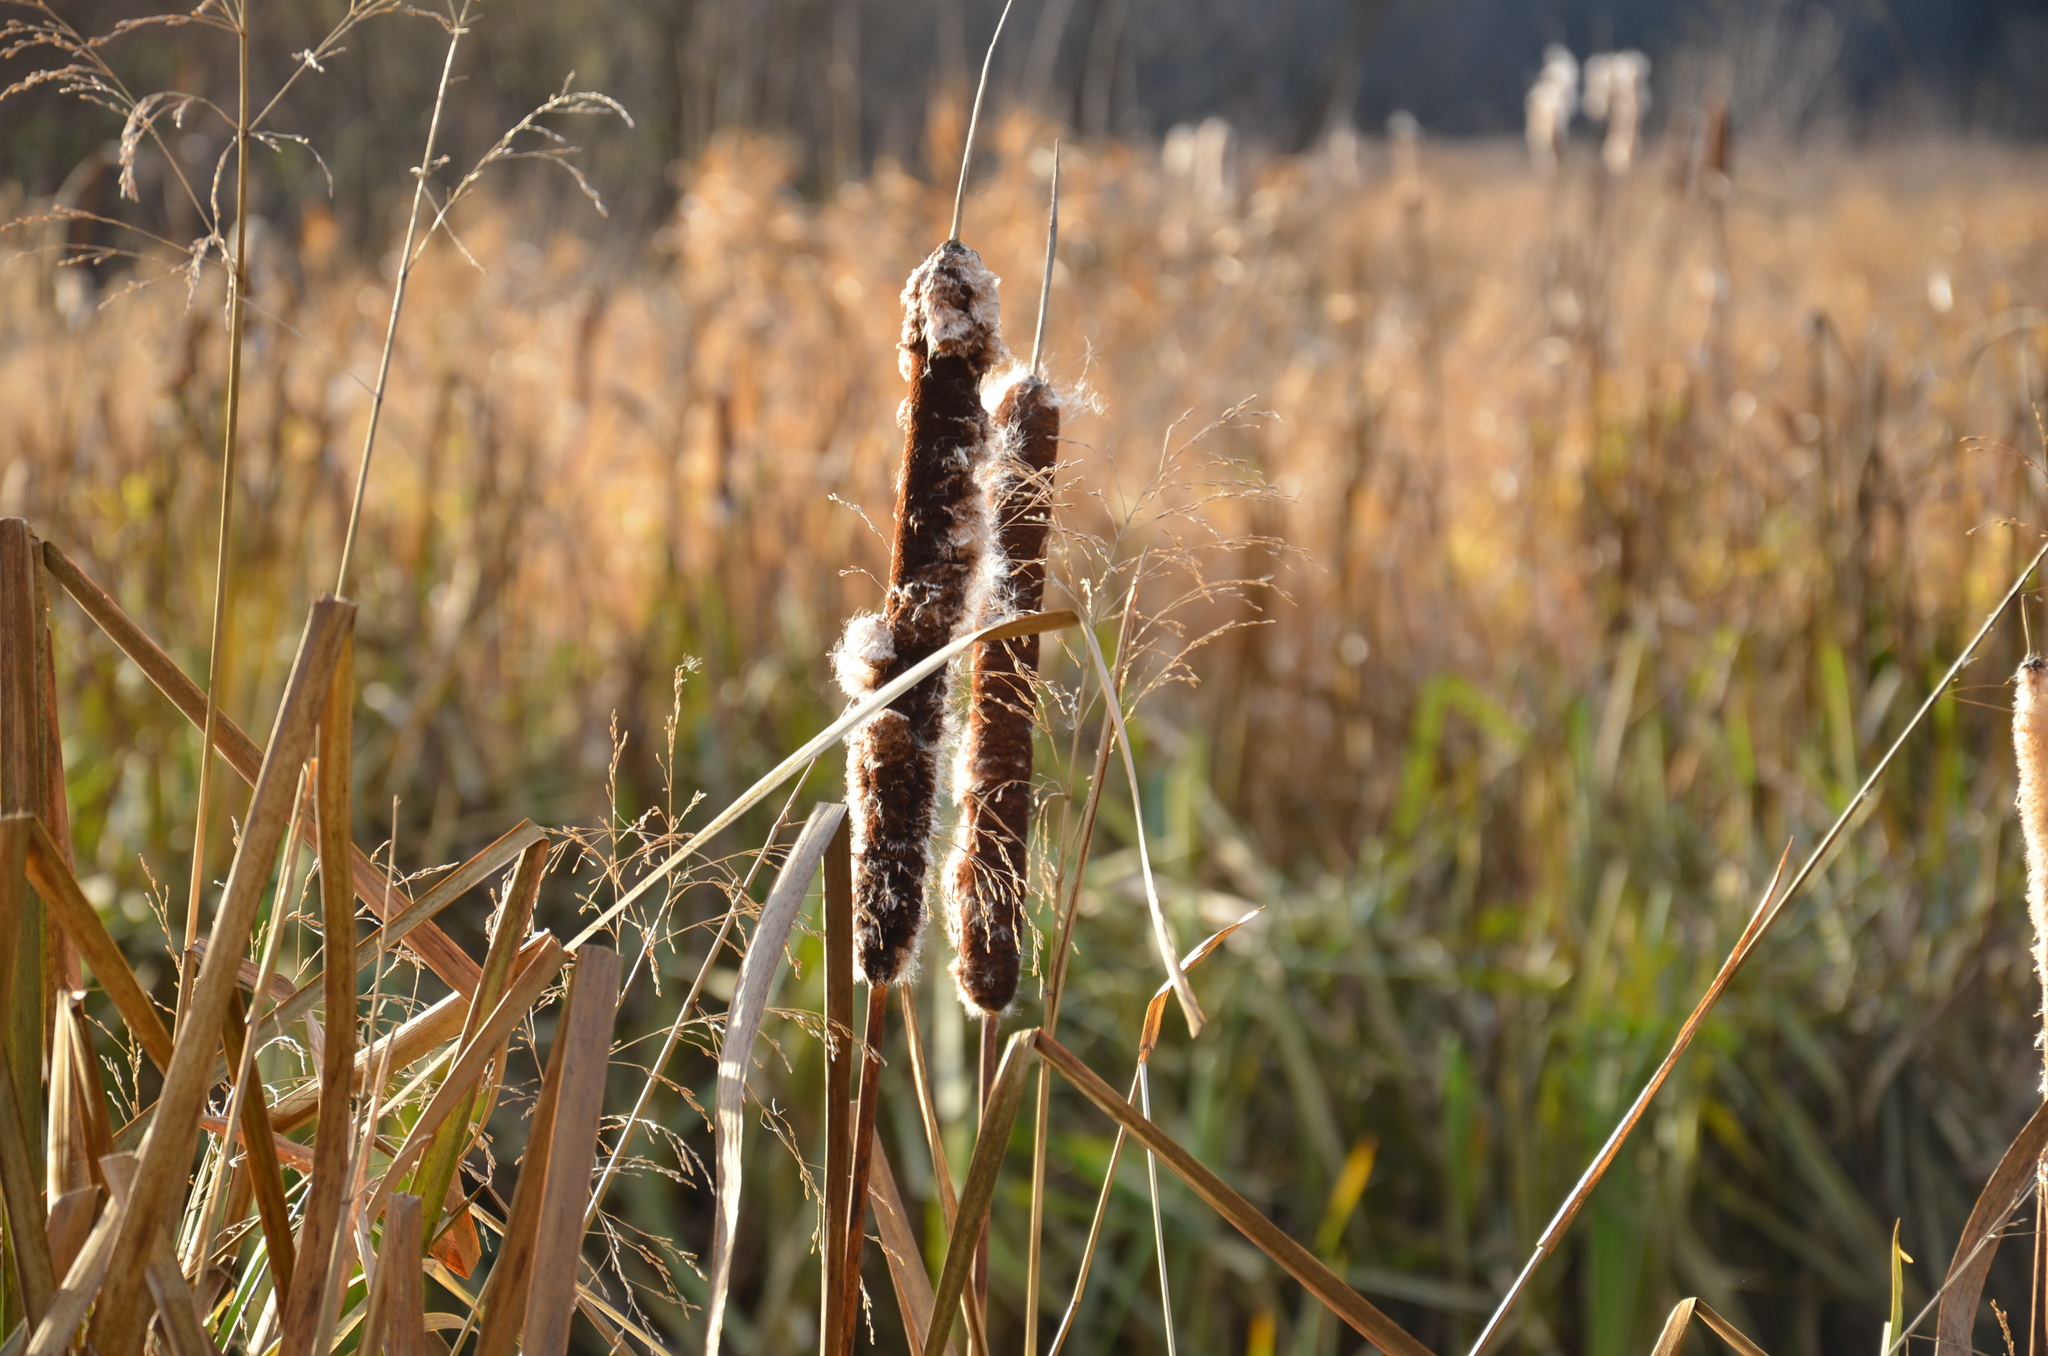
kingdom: Plantae
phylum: Tracheophyta
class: Liliopsida
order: Poales
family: Typhaceae
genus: Typha
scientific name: Typha latifolia
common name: Broadleaf cattail
